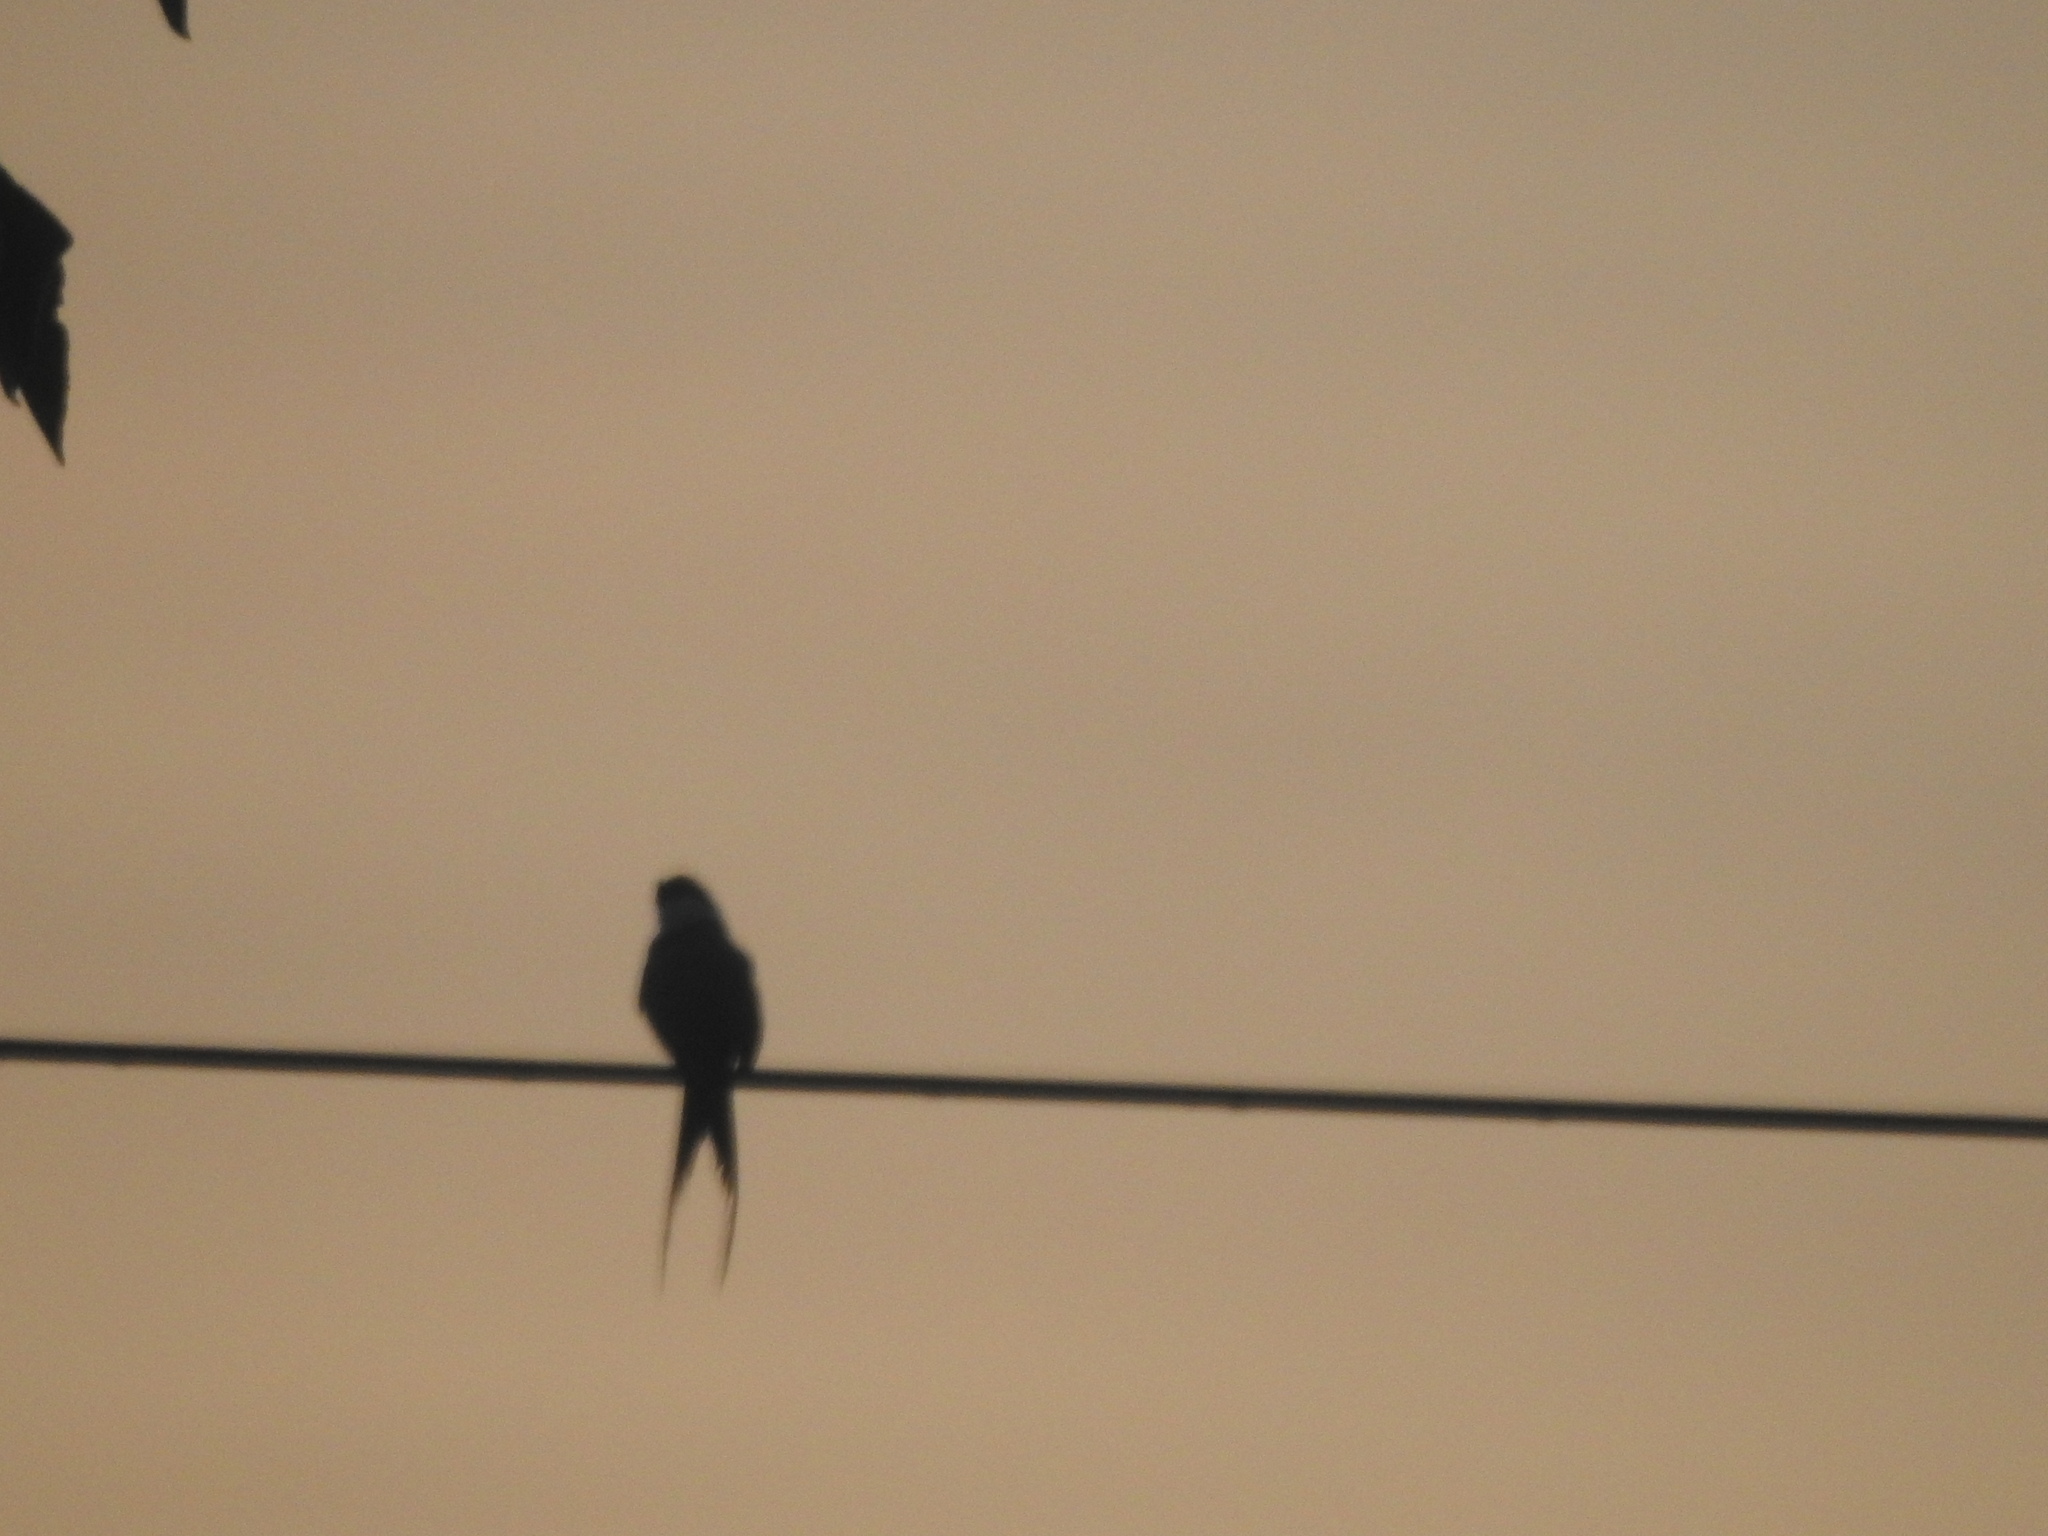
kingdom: Animalia
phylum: Chordata
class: Aves
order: Passeriformes
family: Tyrannidae
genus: Tyrannus
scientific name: Tyrannus savana
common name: Fork-tailed flycatcher
